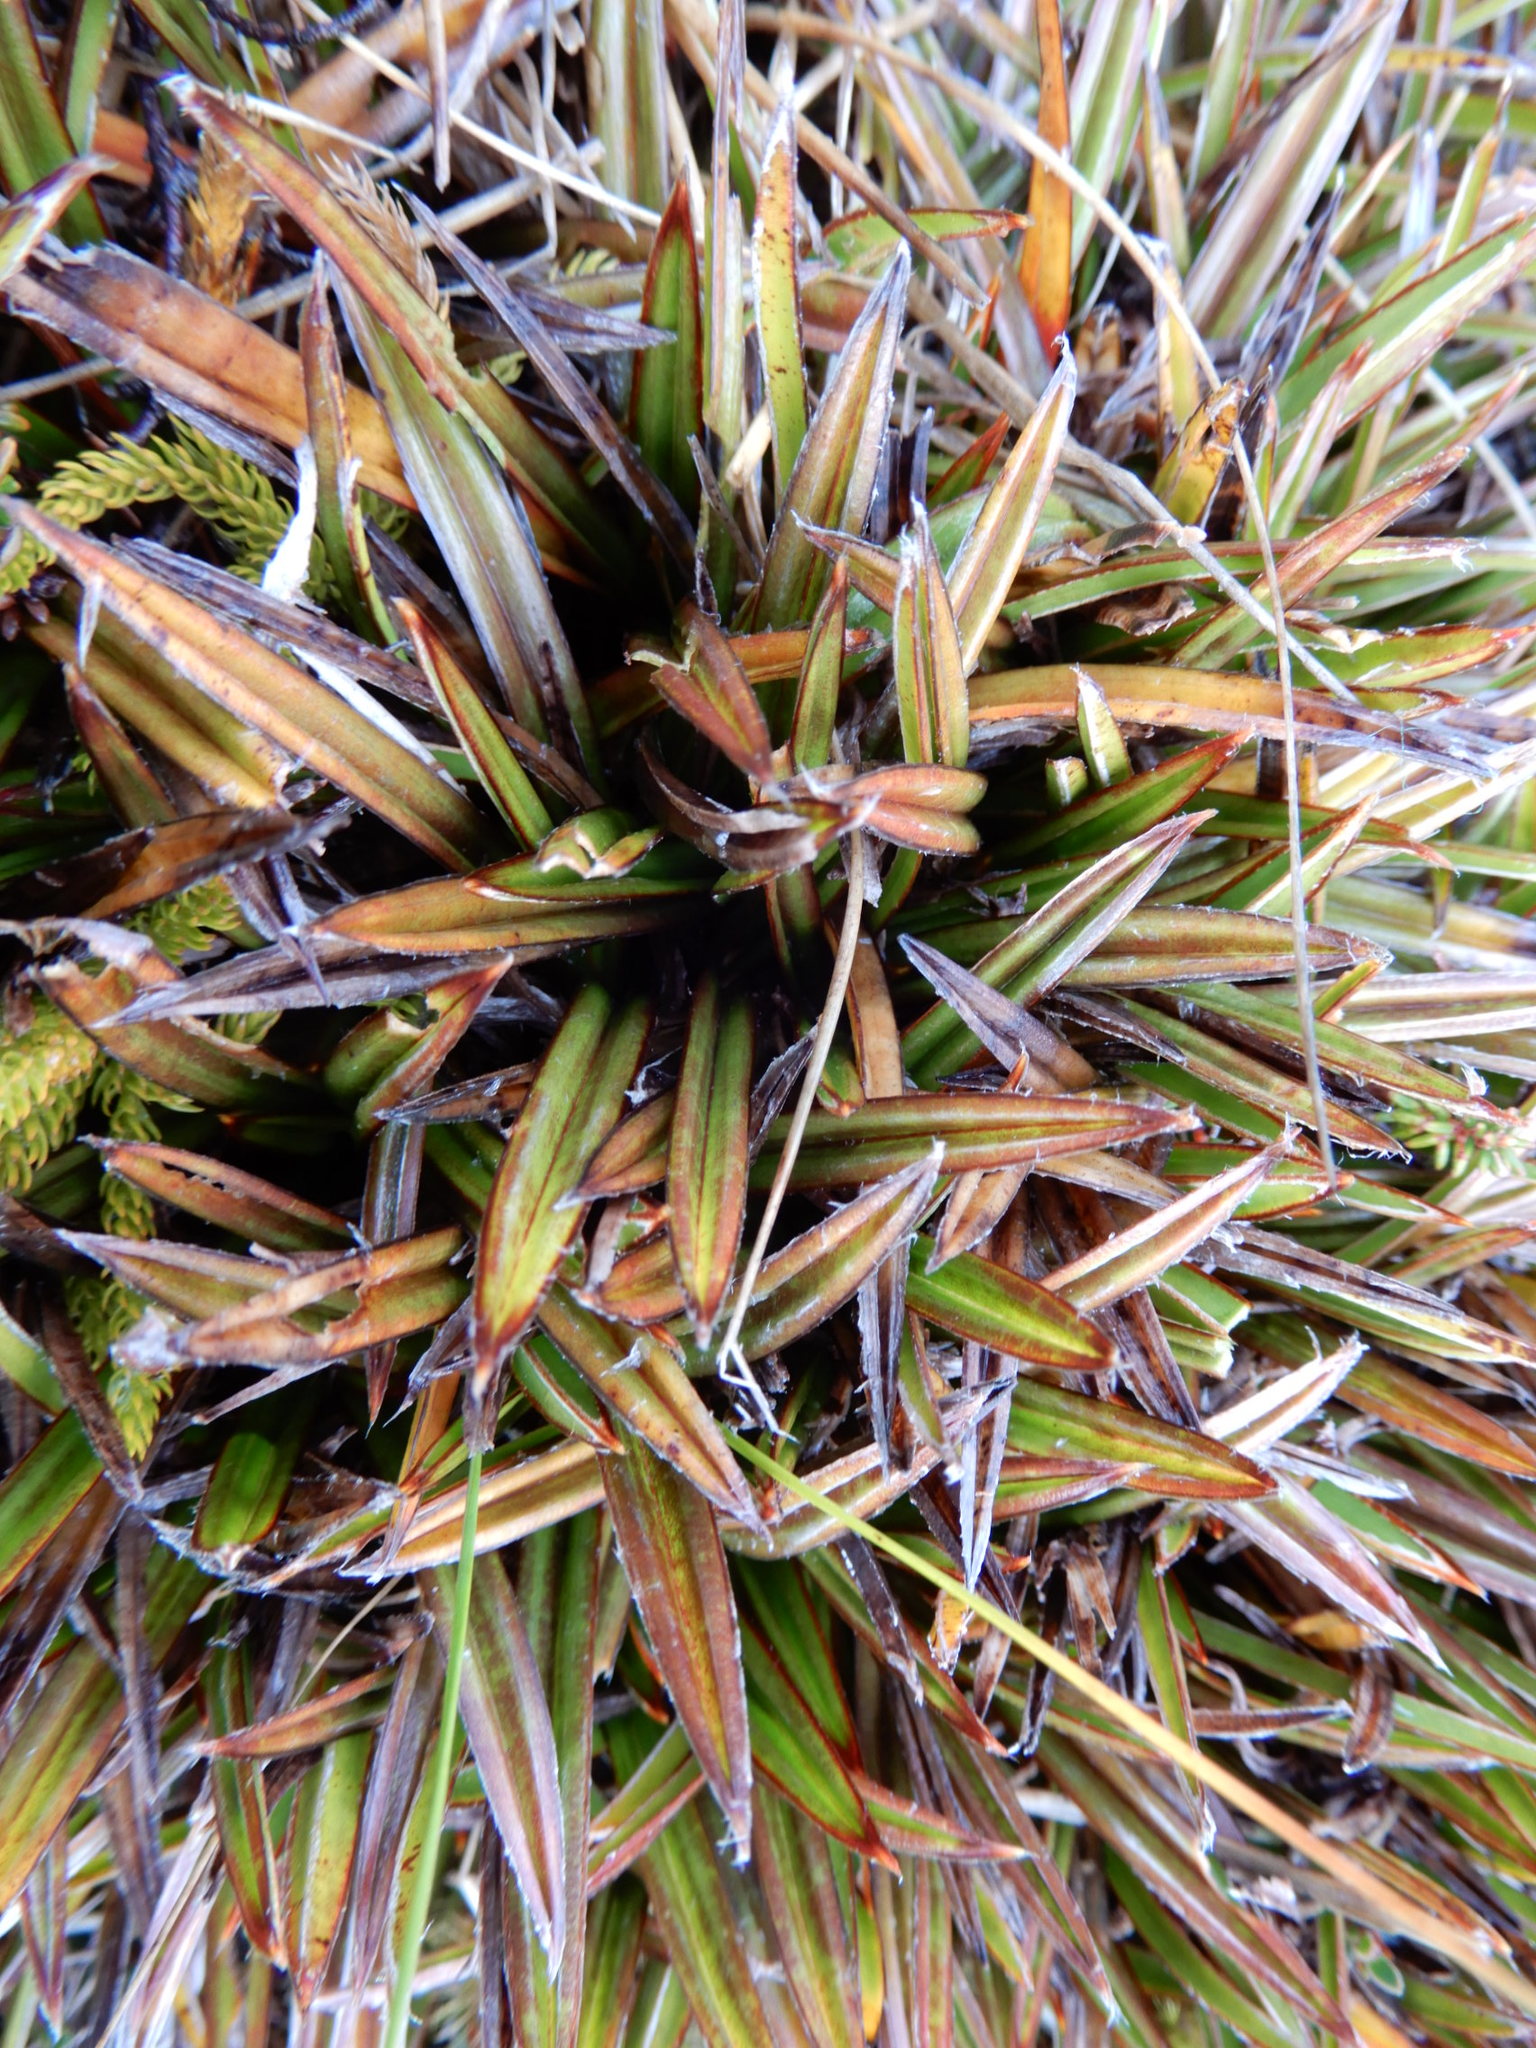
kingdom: Plantae
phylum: Tracheophyta
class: Liliopsida
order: Asparagales
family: Asteliaceae
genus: Astelia
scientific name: Astelia linearis
